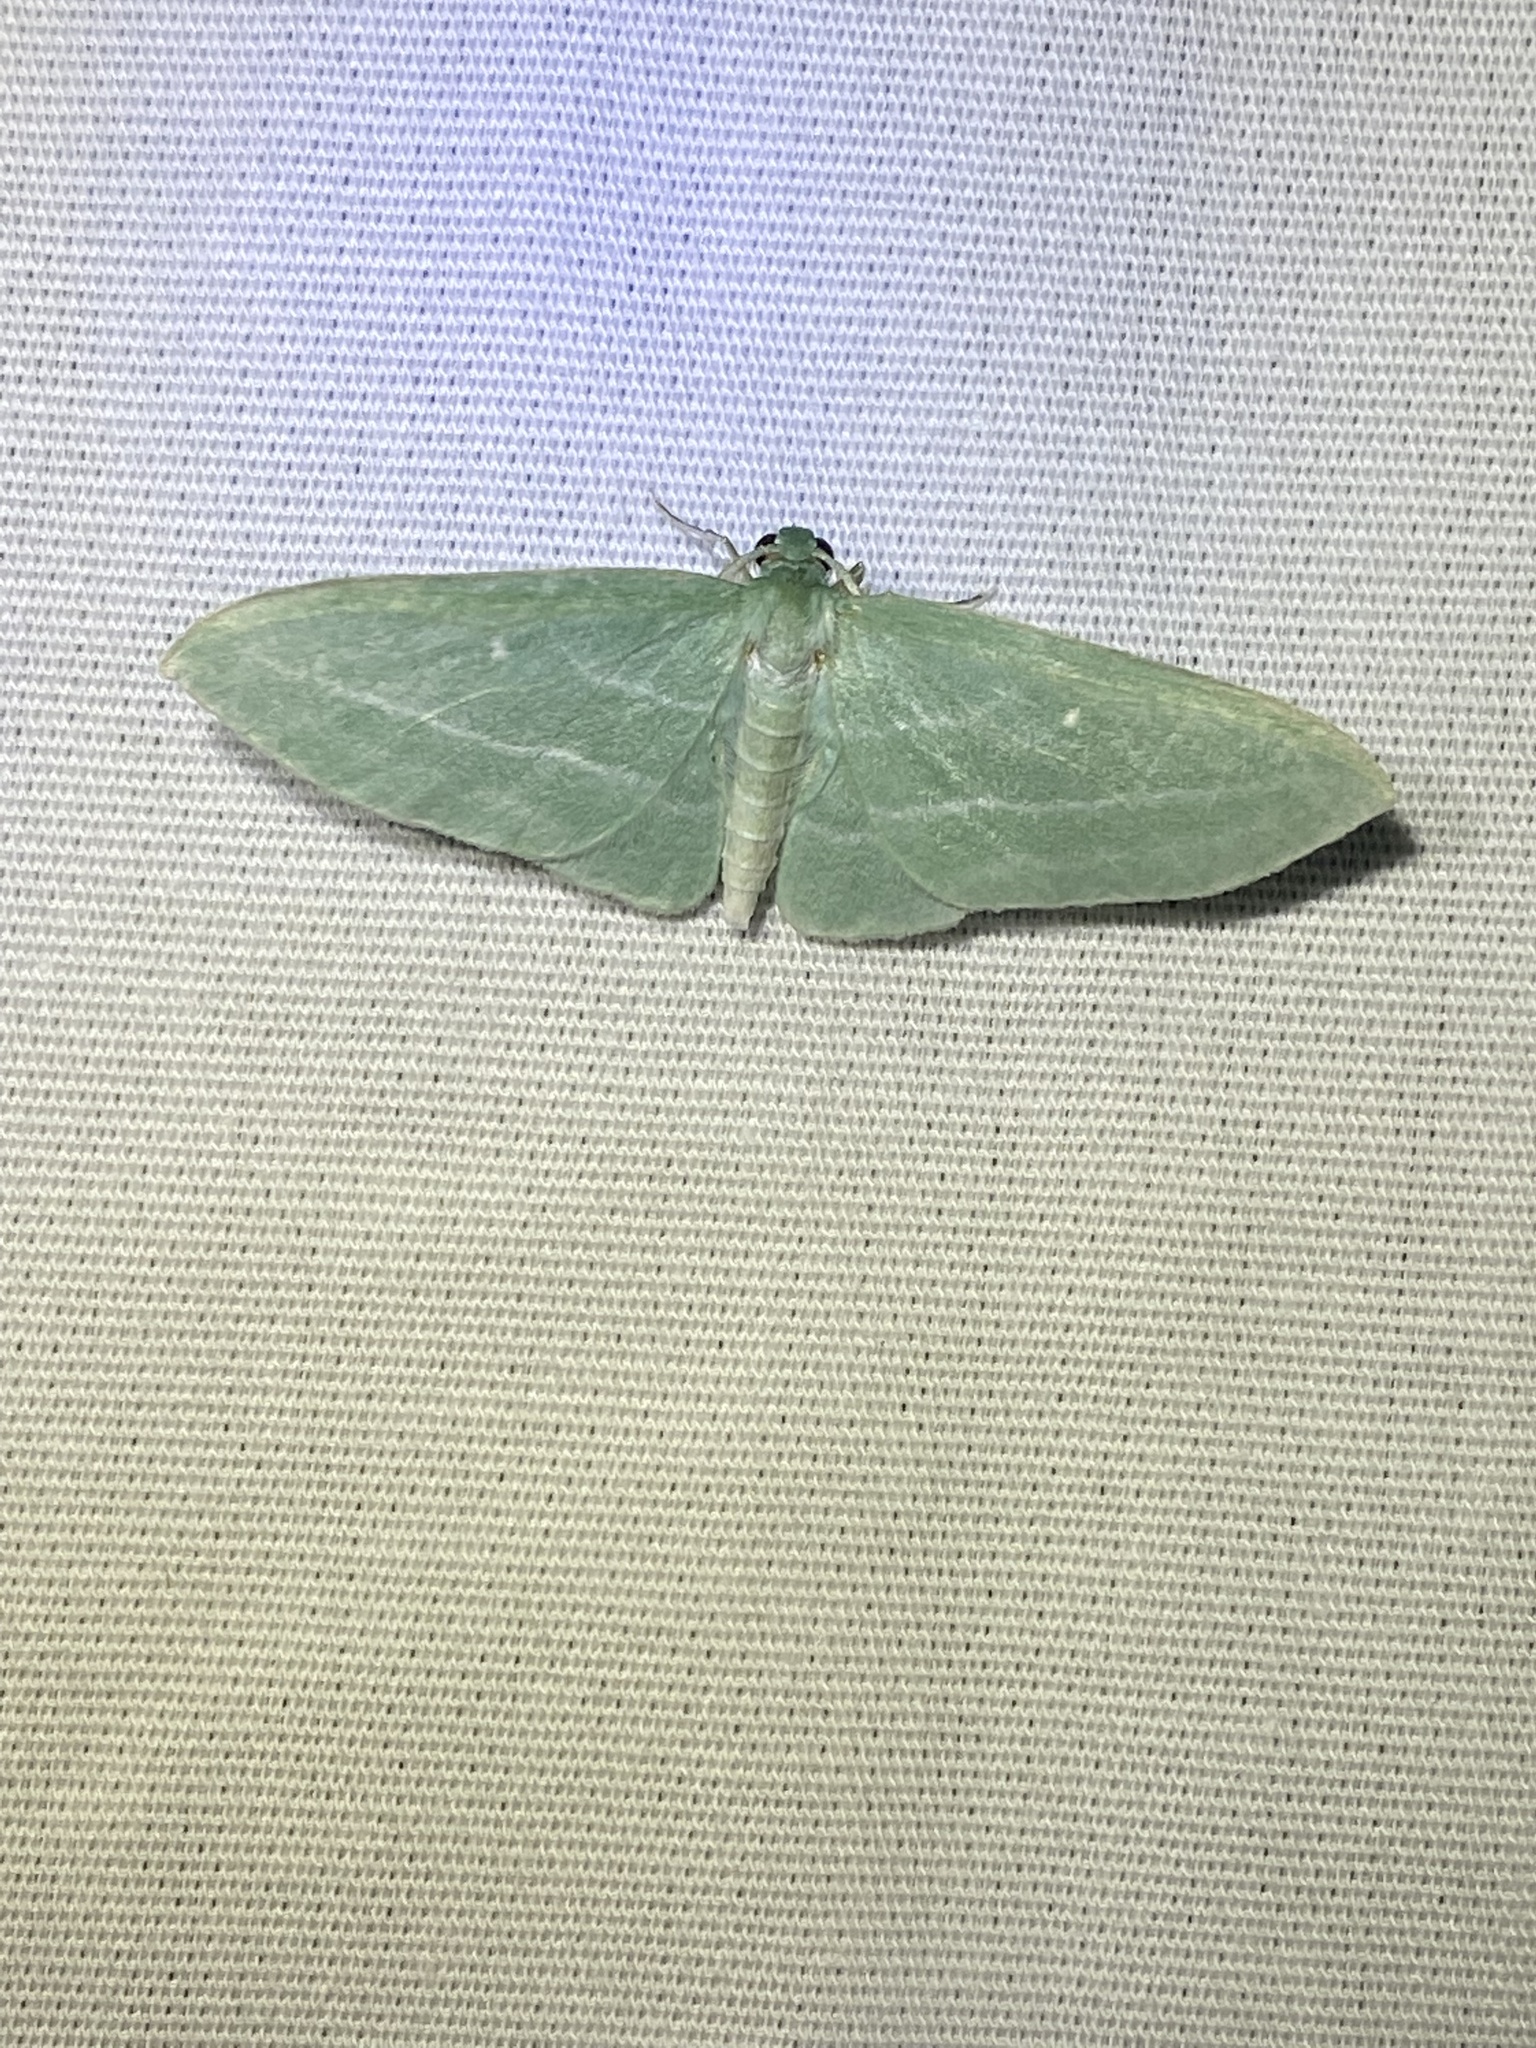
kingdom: Animalia
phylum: Arthropoda
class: Insecta
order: Lepidoptera
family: Geometridae
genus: Dyspteris
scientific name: Dyspteris abortivaria
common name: Bad-wing
